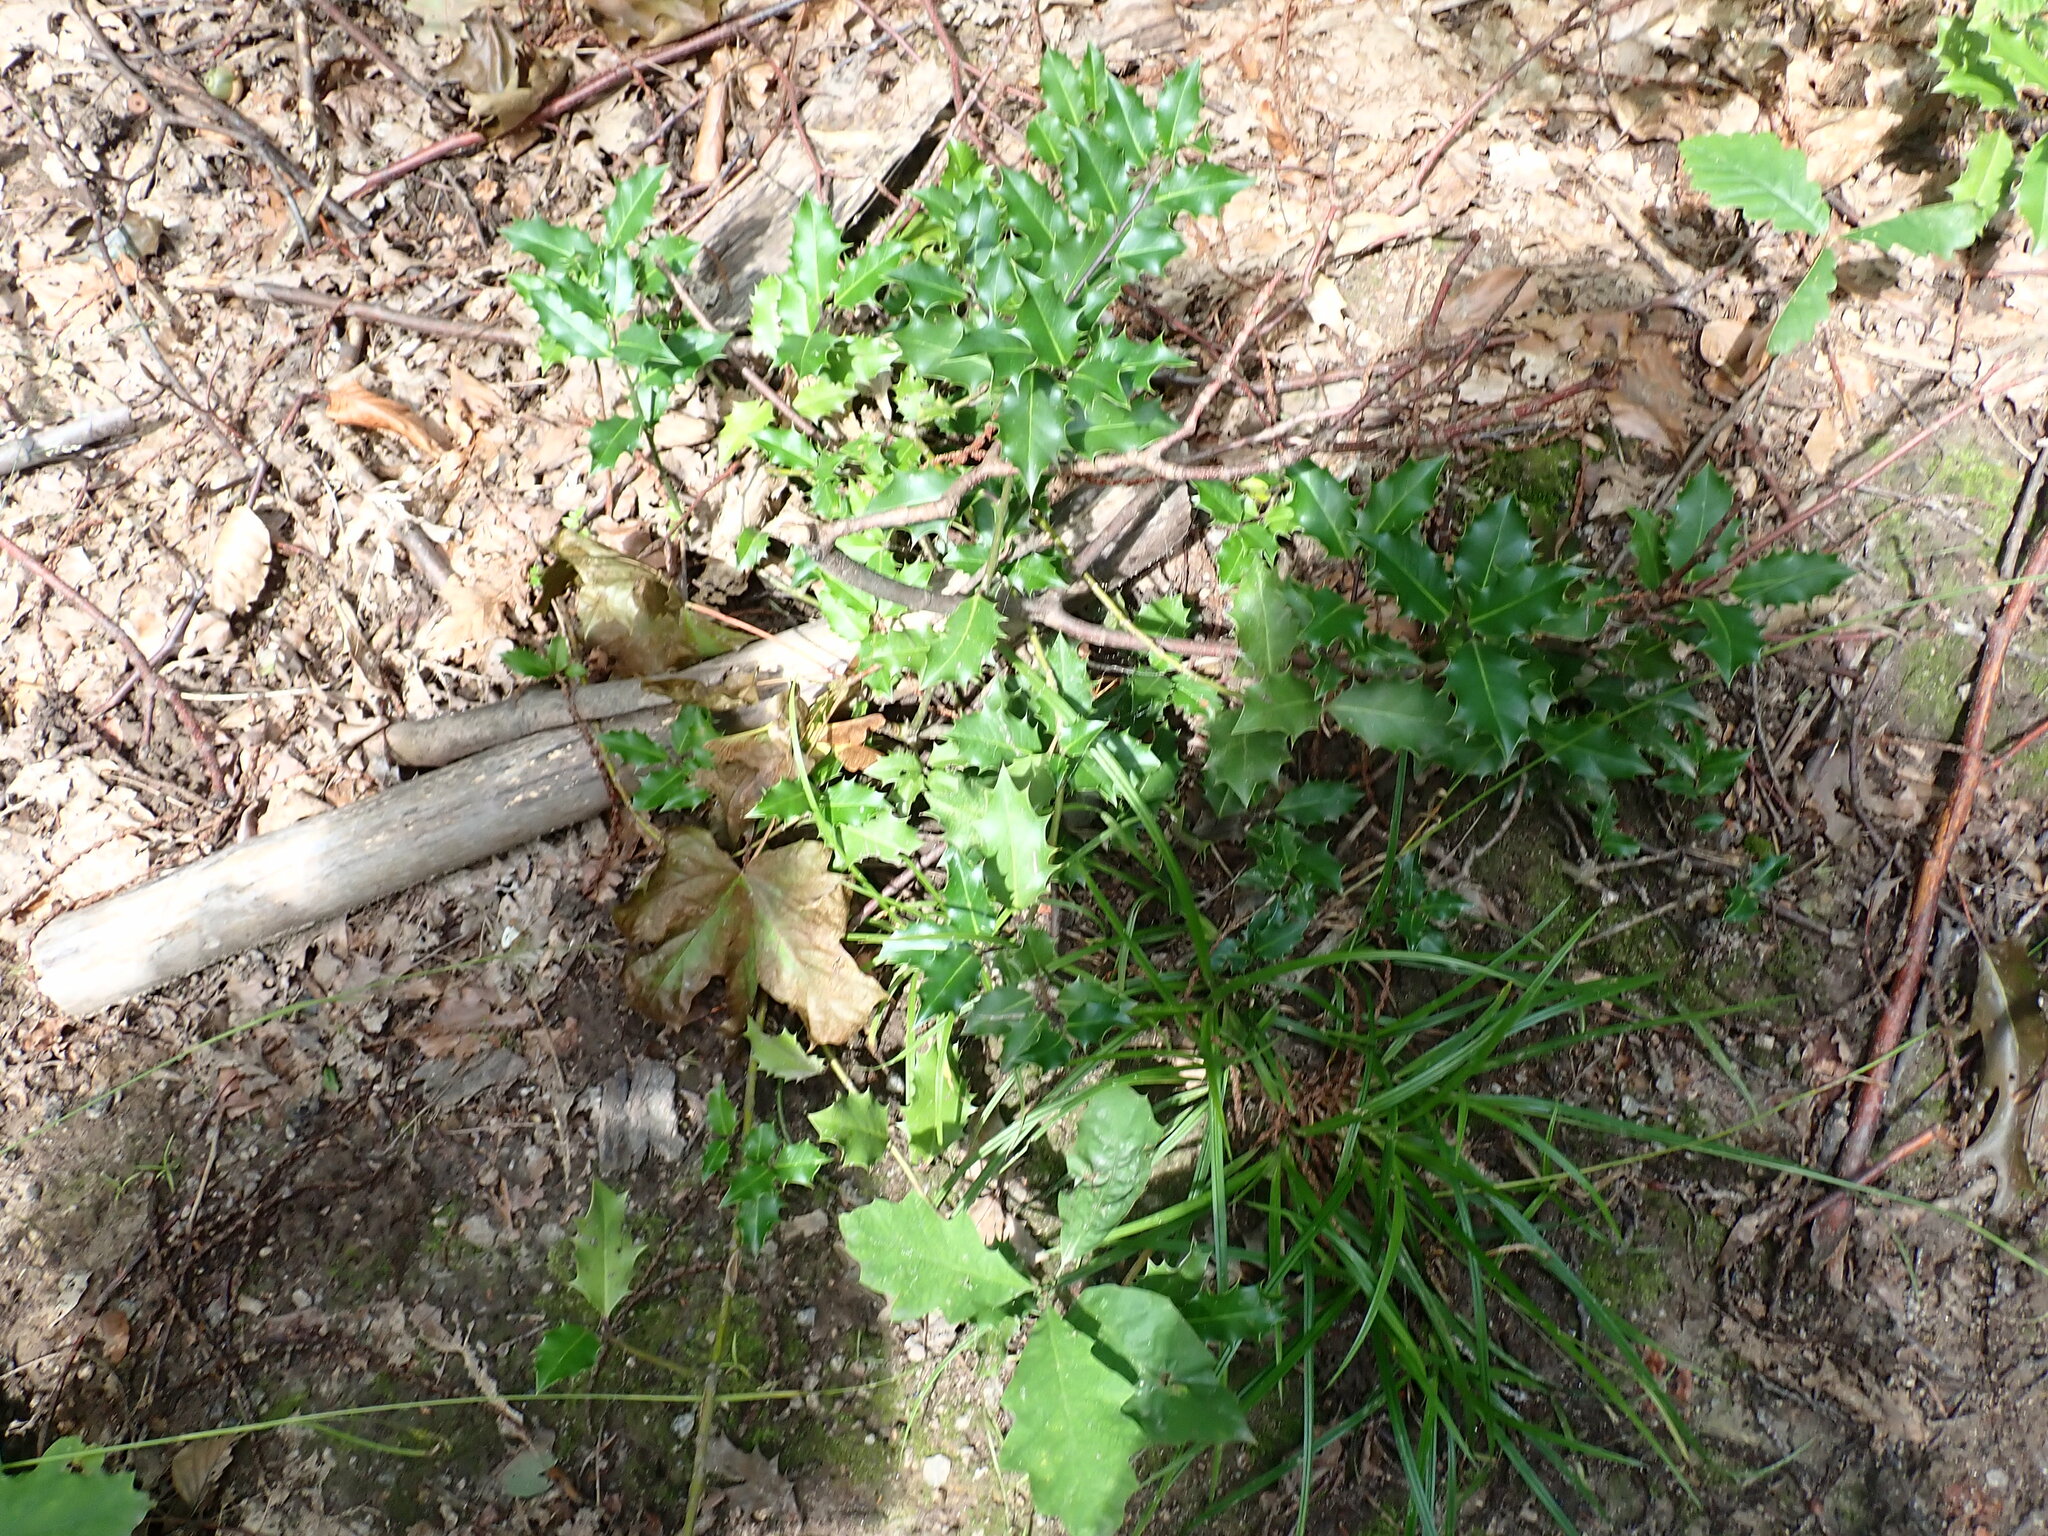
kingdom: Plantae
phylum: Tracheophyta
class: Magnoliopsida
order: Aquifoliales
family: Aquifoliaceae
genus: Ilex
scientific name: Ilex aquifolium
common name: English holly
